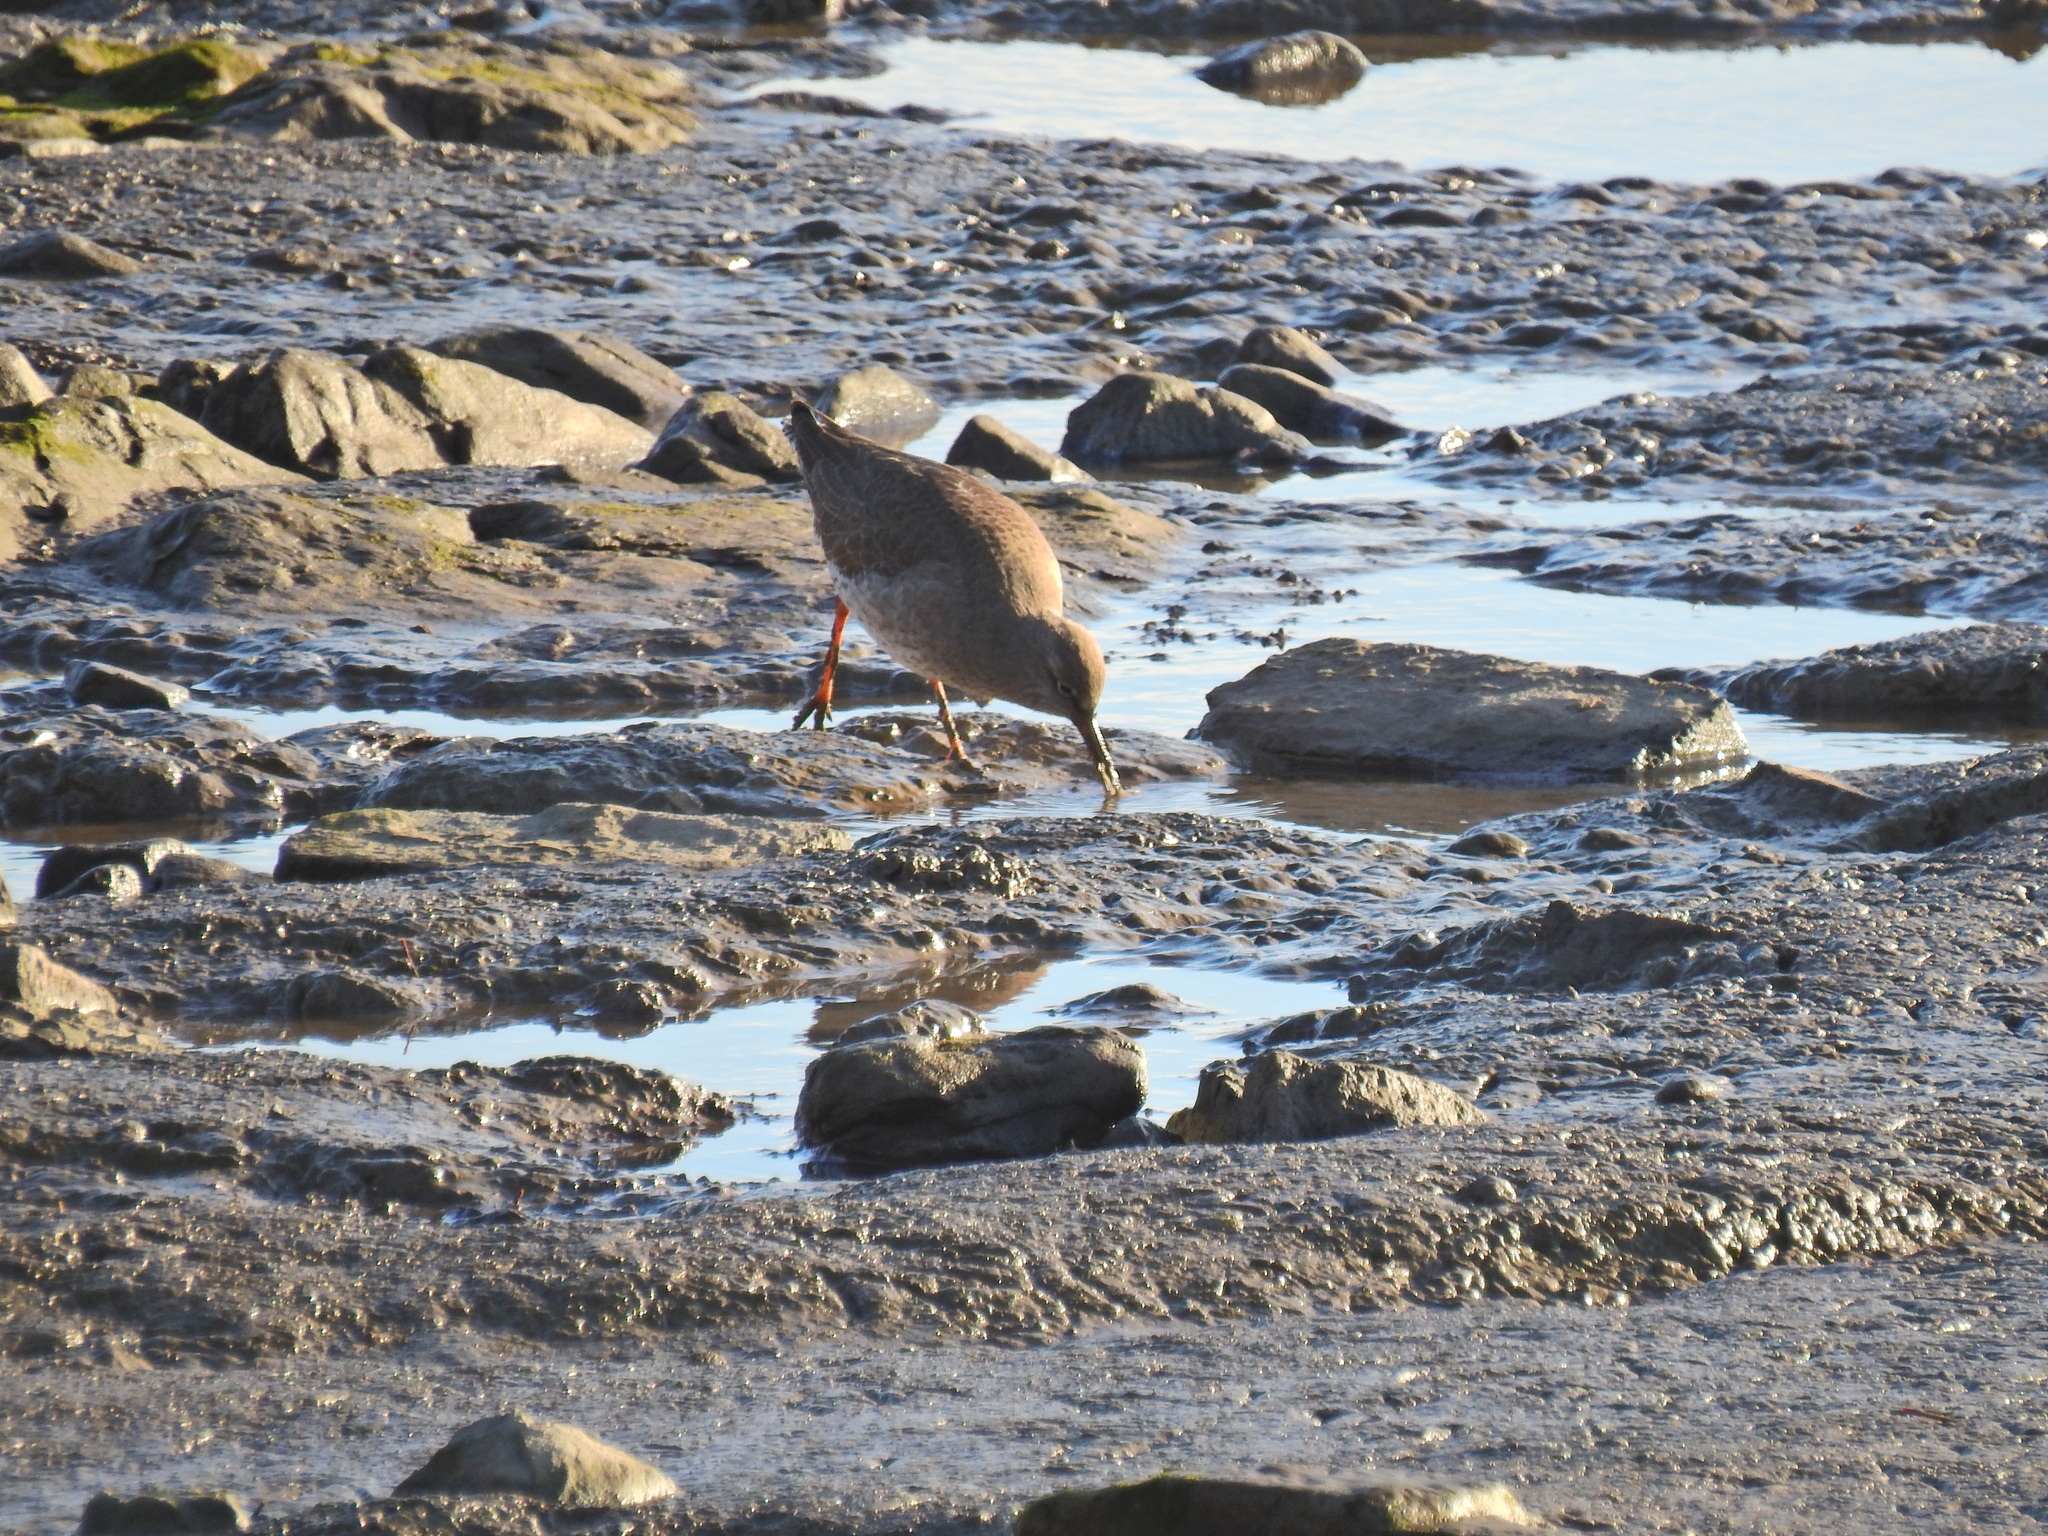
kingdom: Animalia
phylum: Chordata
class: Aves
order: Charadriiformes
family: Scolopacidae
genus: Tringa
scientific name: Tringa totanus
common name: Common redshank
